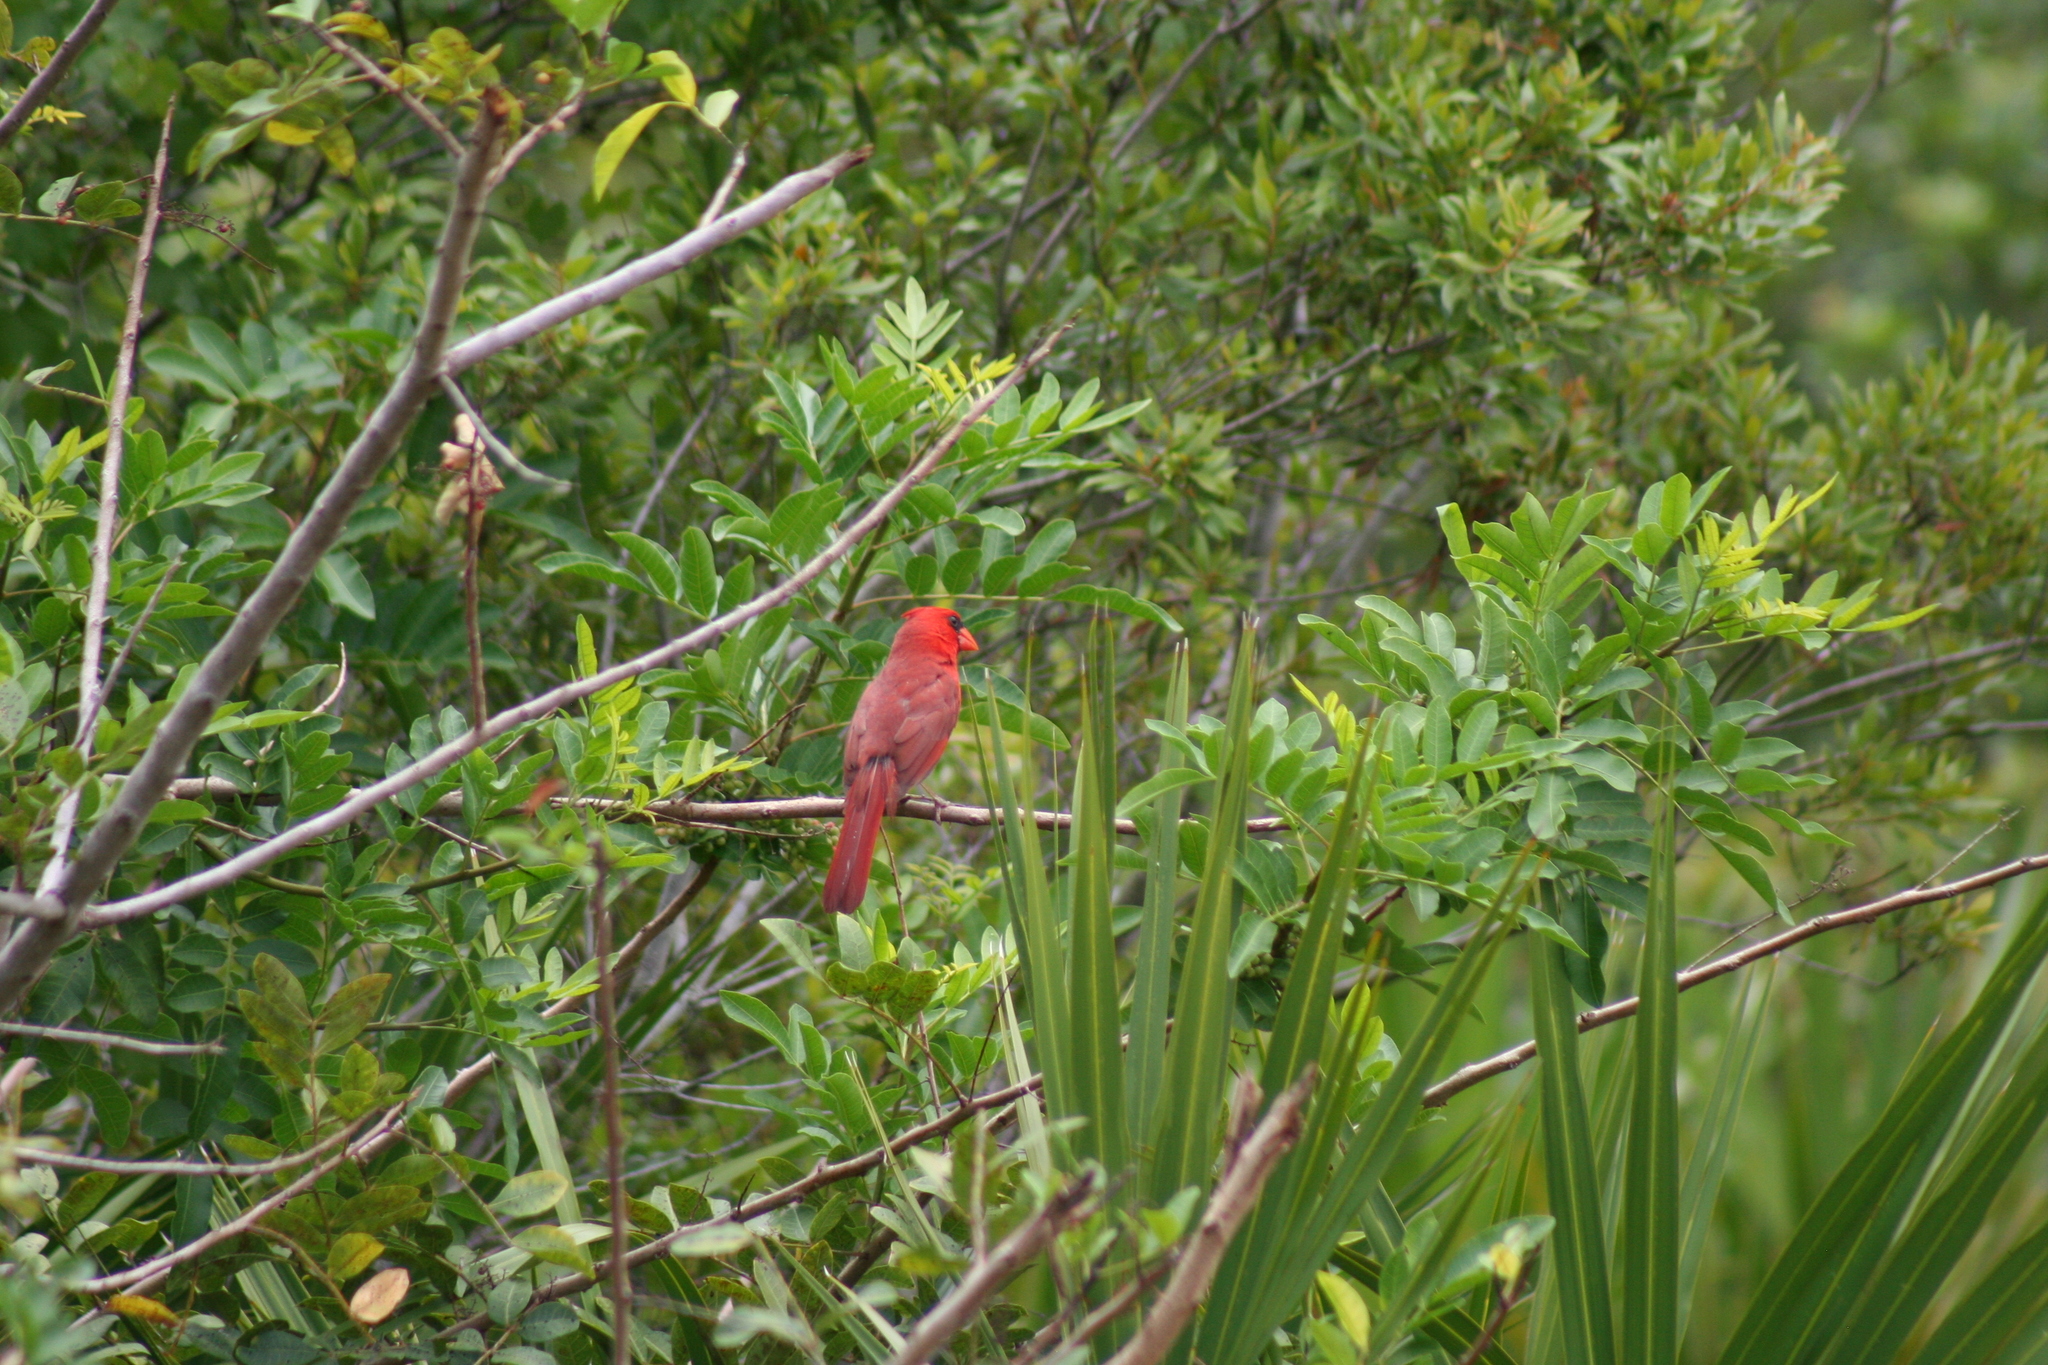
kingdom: Animalia
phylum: Chordata
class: Aves
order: Passeriformes
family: Cardinalidae
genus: Cardinalis
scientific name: Cardinalis cardinalis
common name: Northern cardinal
